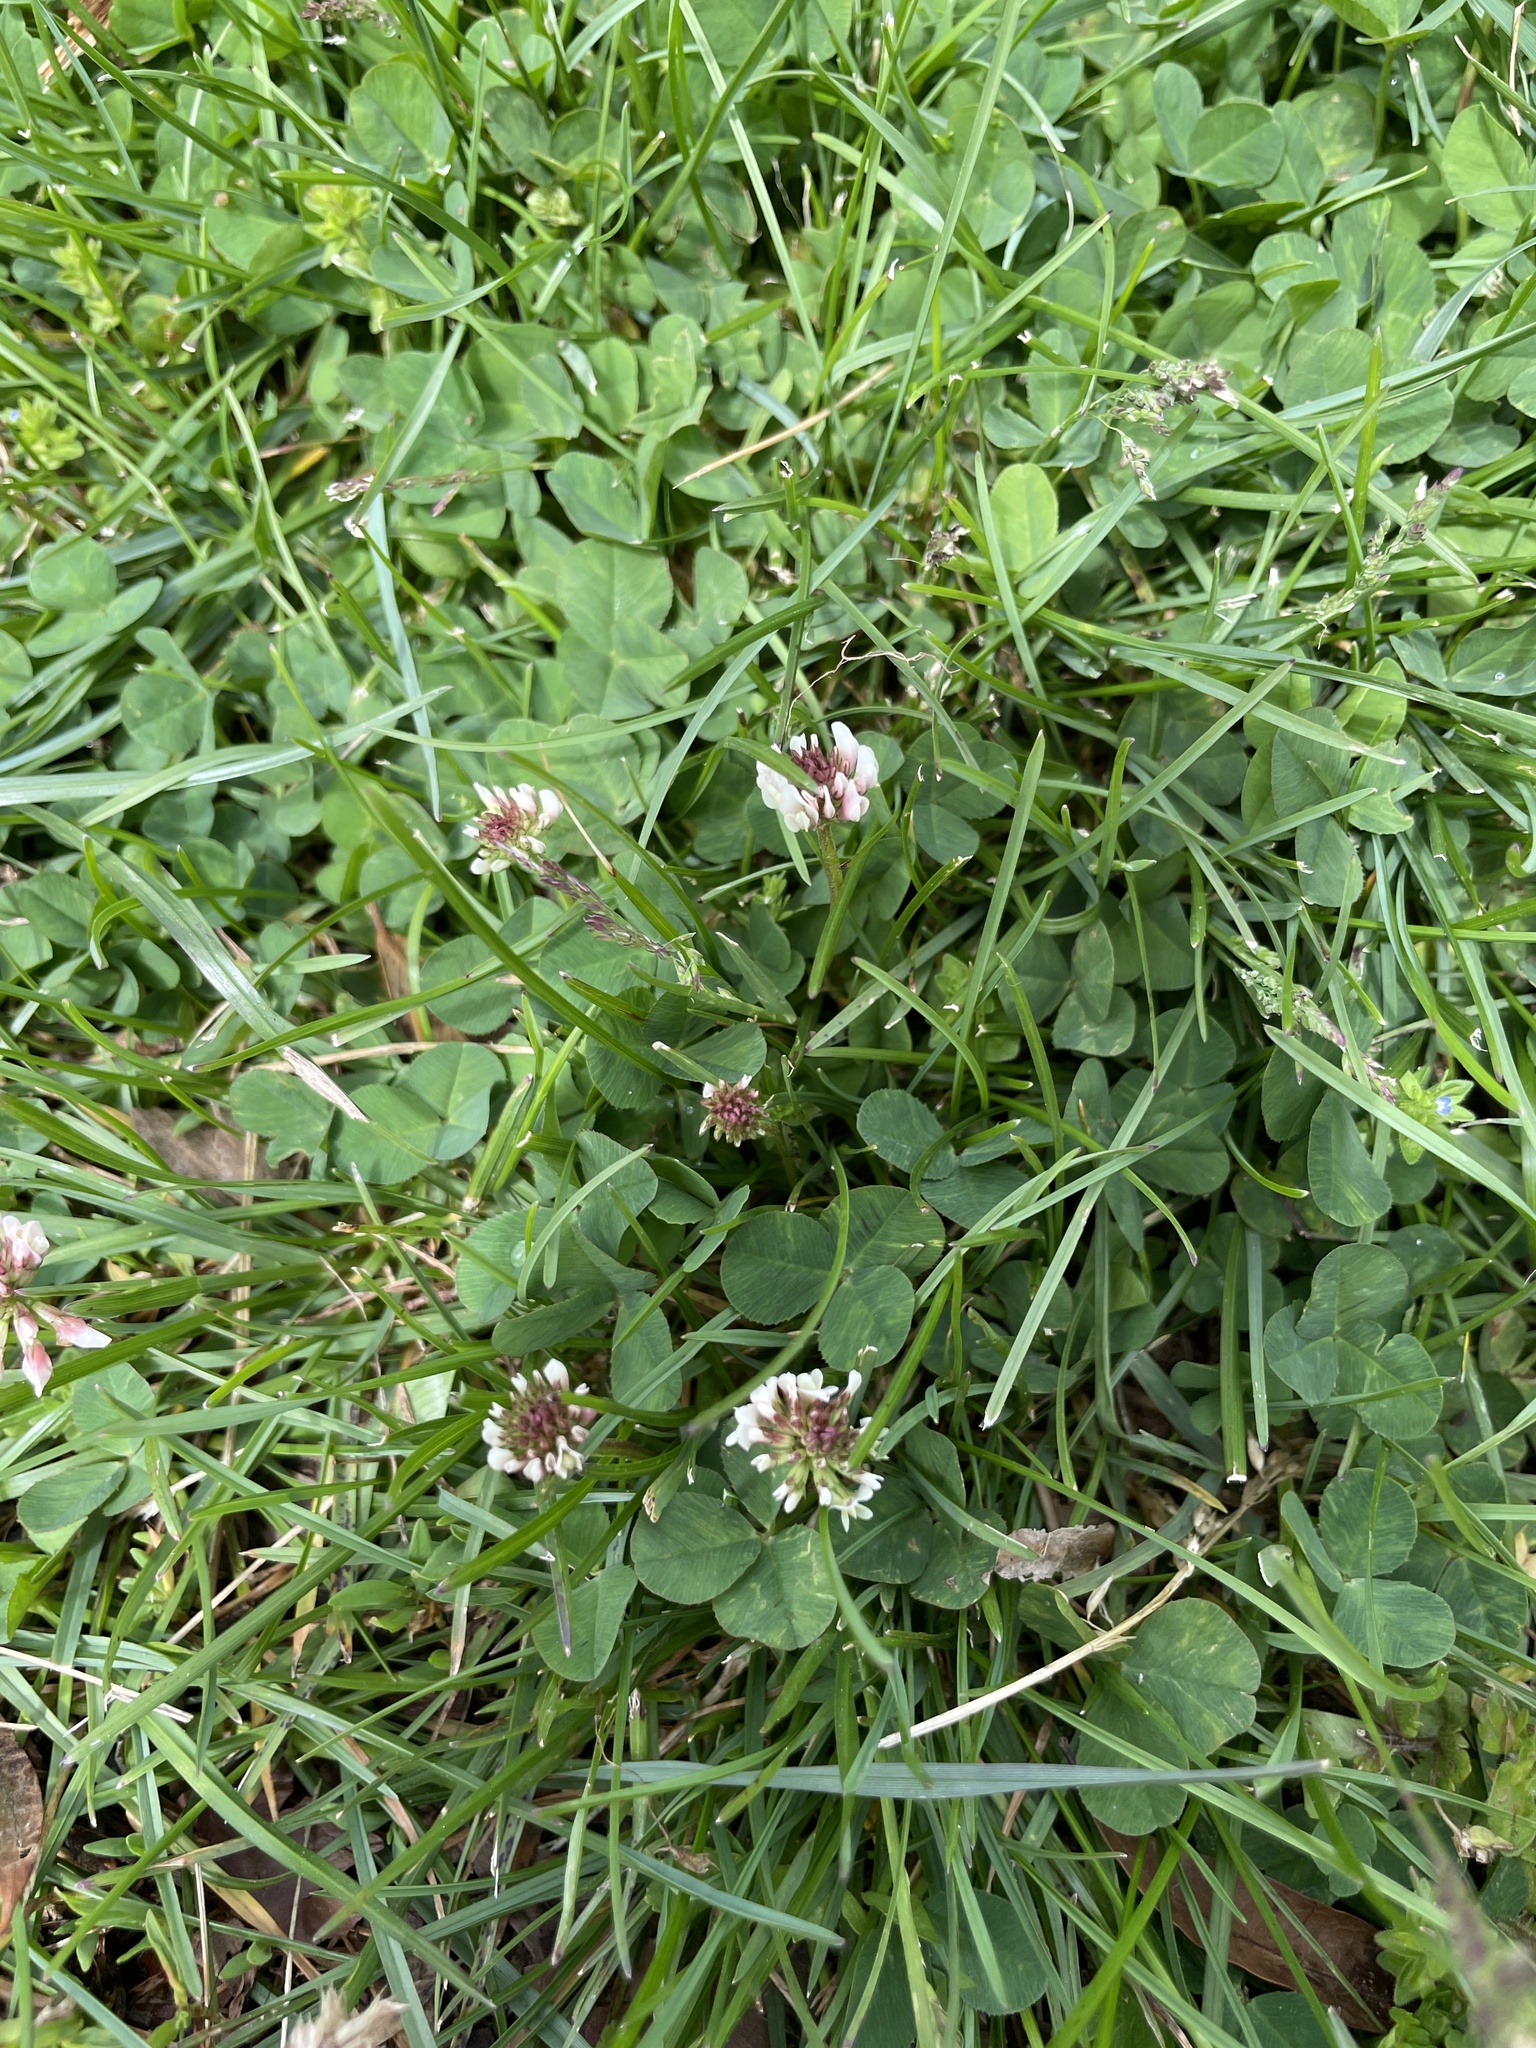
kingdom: Plantae
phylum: Tracheophyta
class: Magnoliopsida
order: Fabales
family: Fabaceae
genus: Trifolium
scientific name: Trifolium repens
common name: White clover
